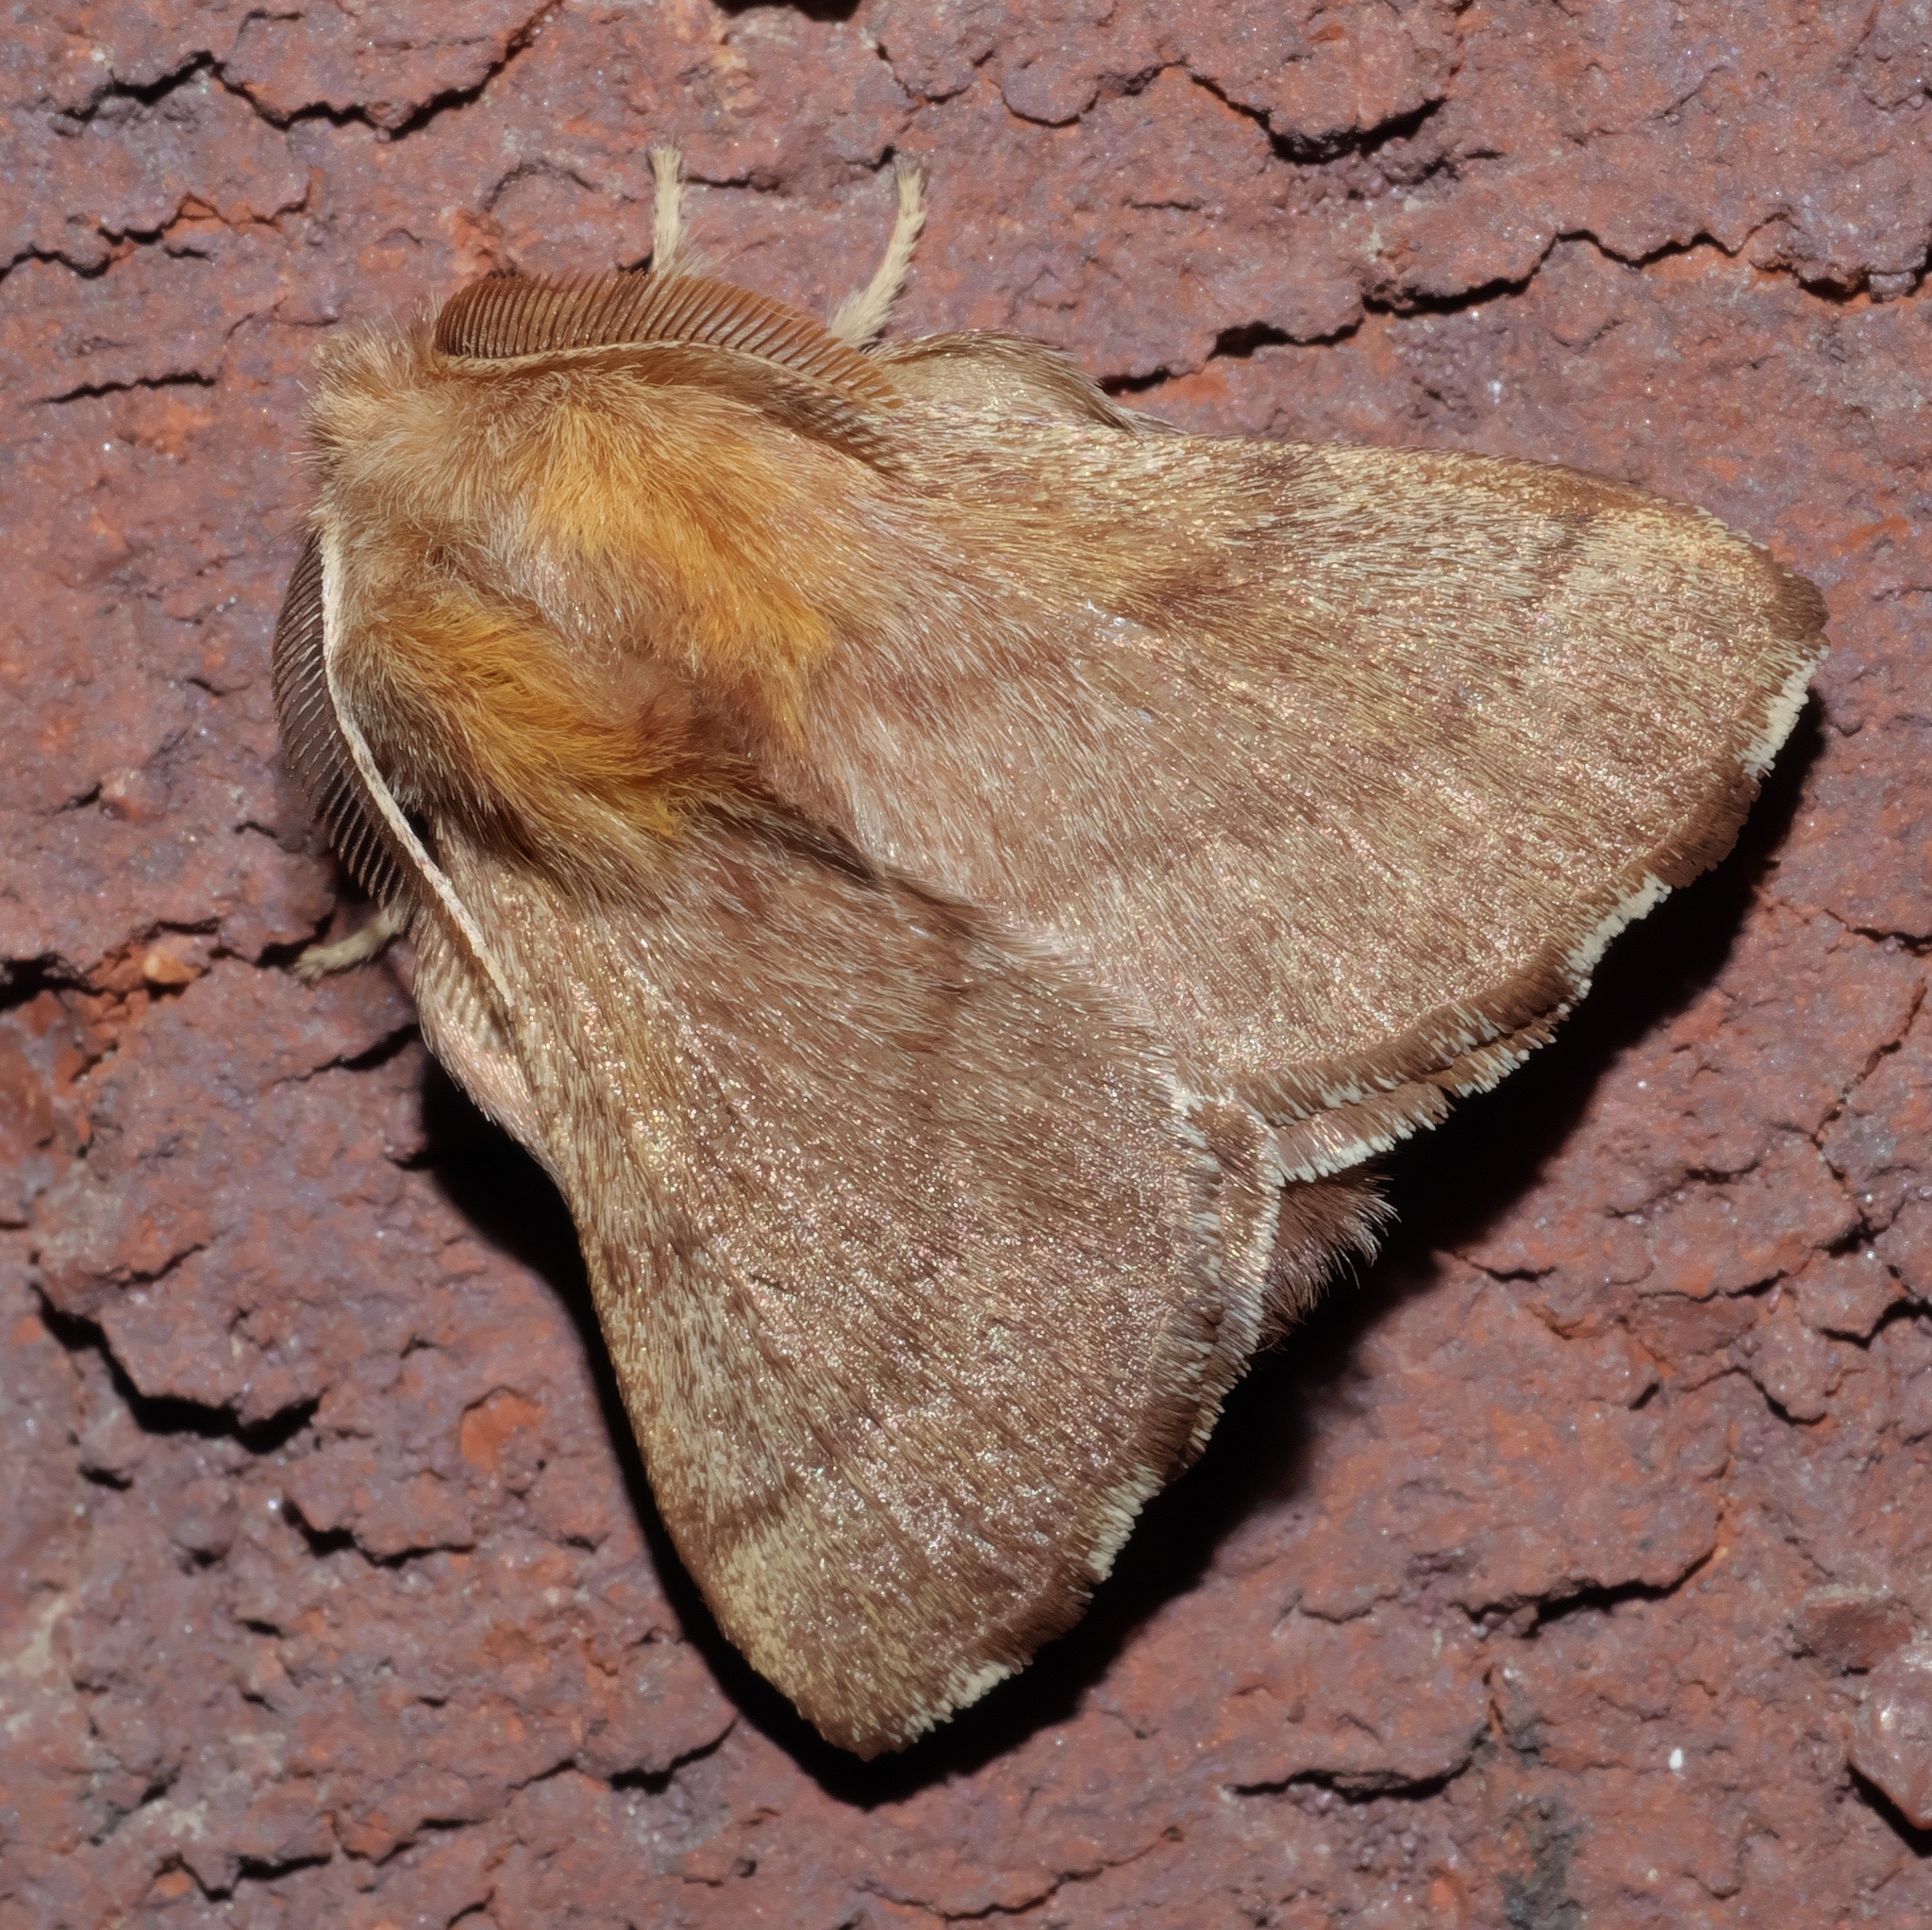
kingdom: Animalia
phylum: Arthropoda
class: Insecta
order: Lepidoptera
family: Lasiocampidae
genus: Malacosoma
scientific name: Malacosoma disstria
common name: Forest tent caterpillar
